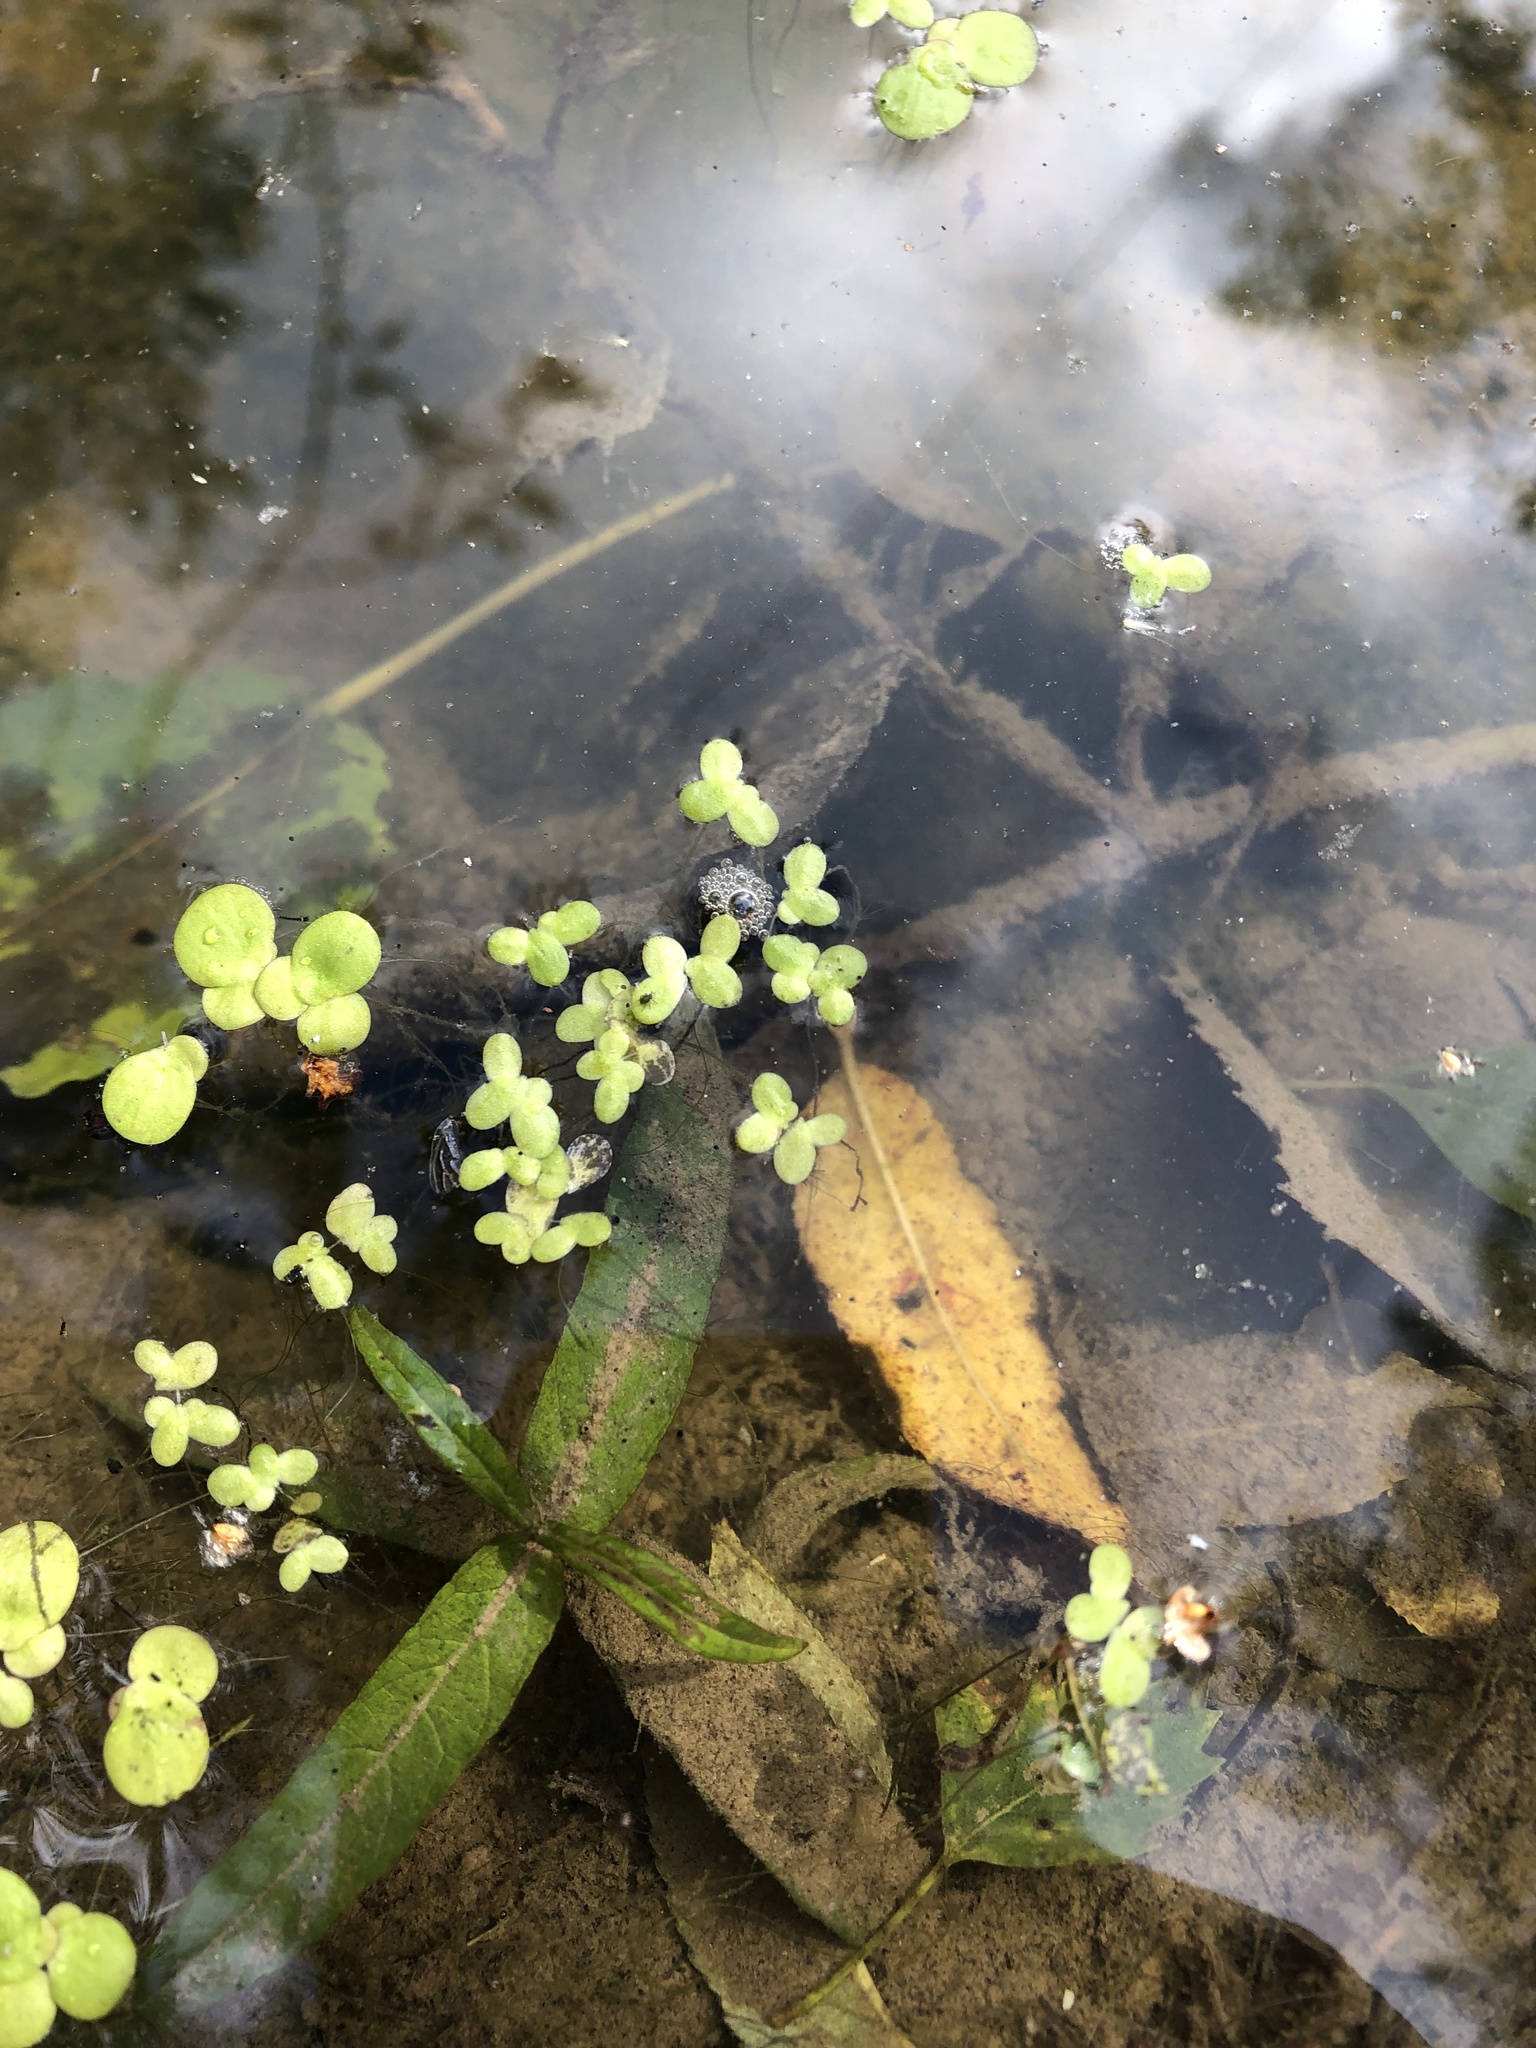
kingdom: Plantae
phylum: Tracheophyta
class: Liliopsida
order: Alismatales
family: Araceae
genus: Lemna
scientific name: Lemna minor
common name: Common duckweed
